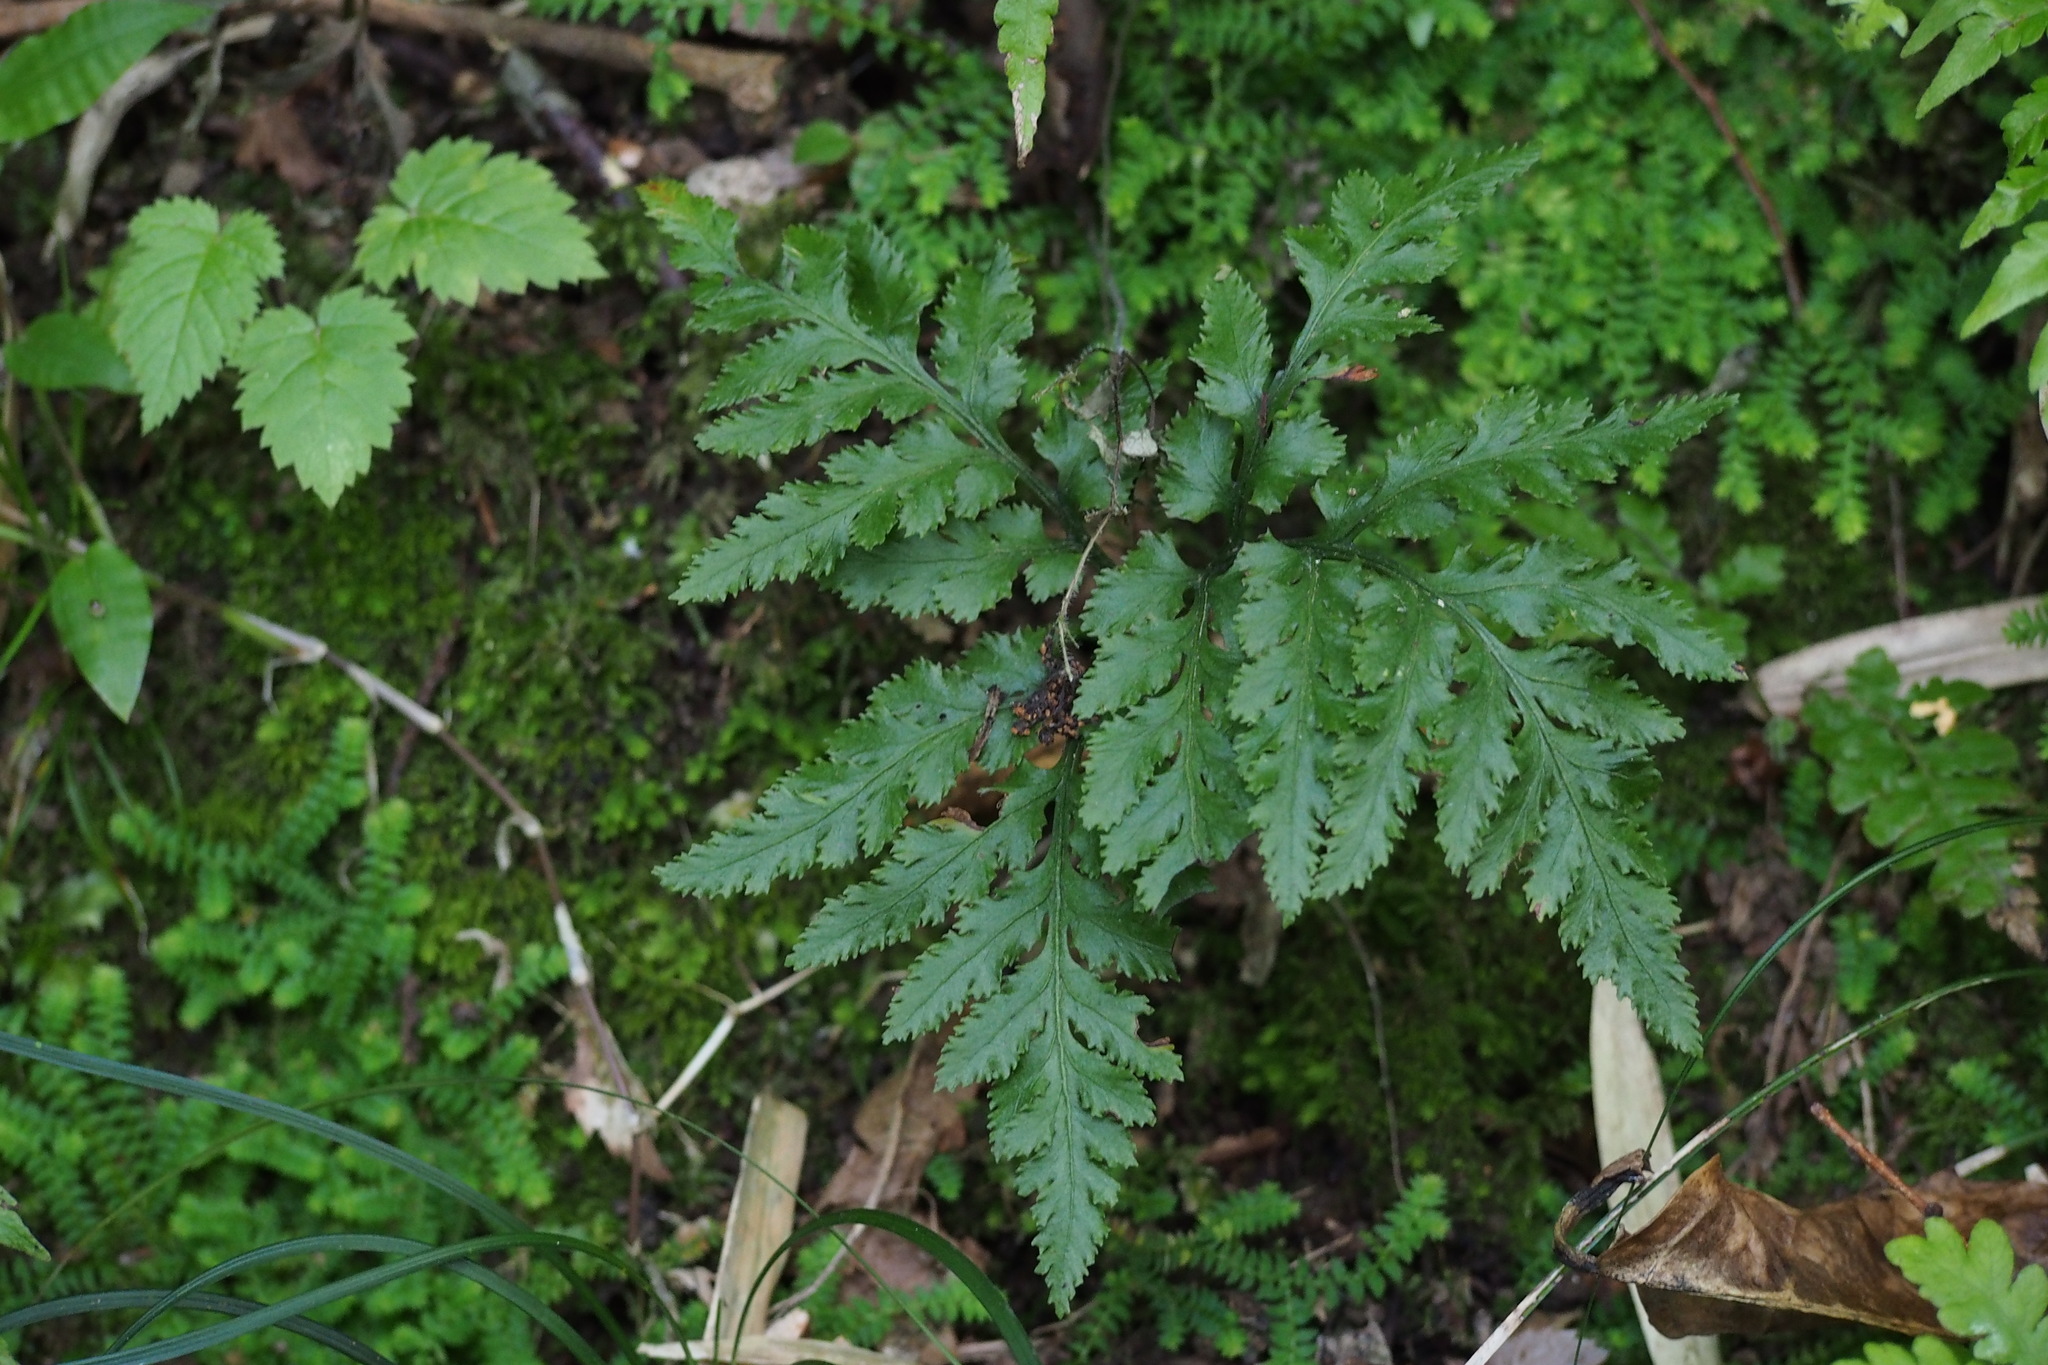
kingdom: Plantae
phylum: Tracheophyta
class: Polypodiopsida
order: Ophioglossales
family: Ophioglossaceae
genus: Sceptridium
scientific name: Sceptridium ternatum
